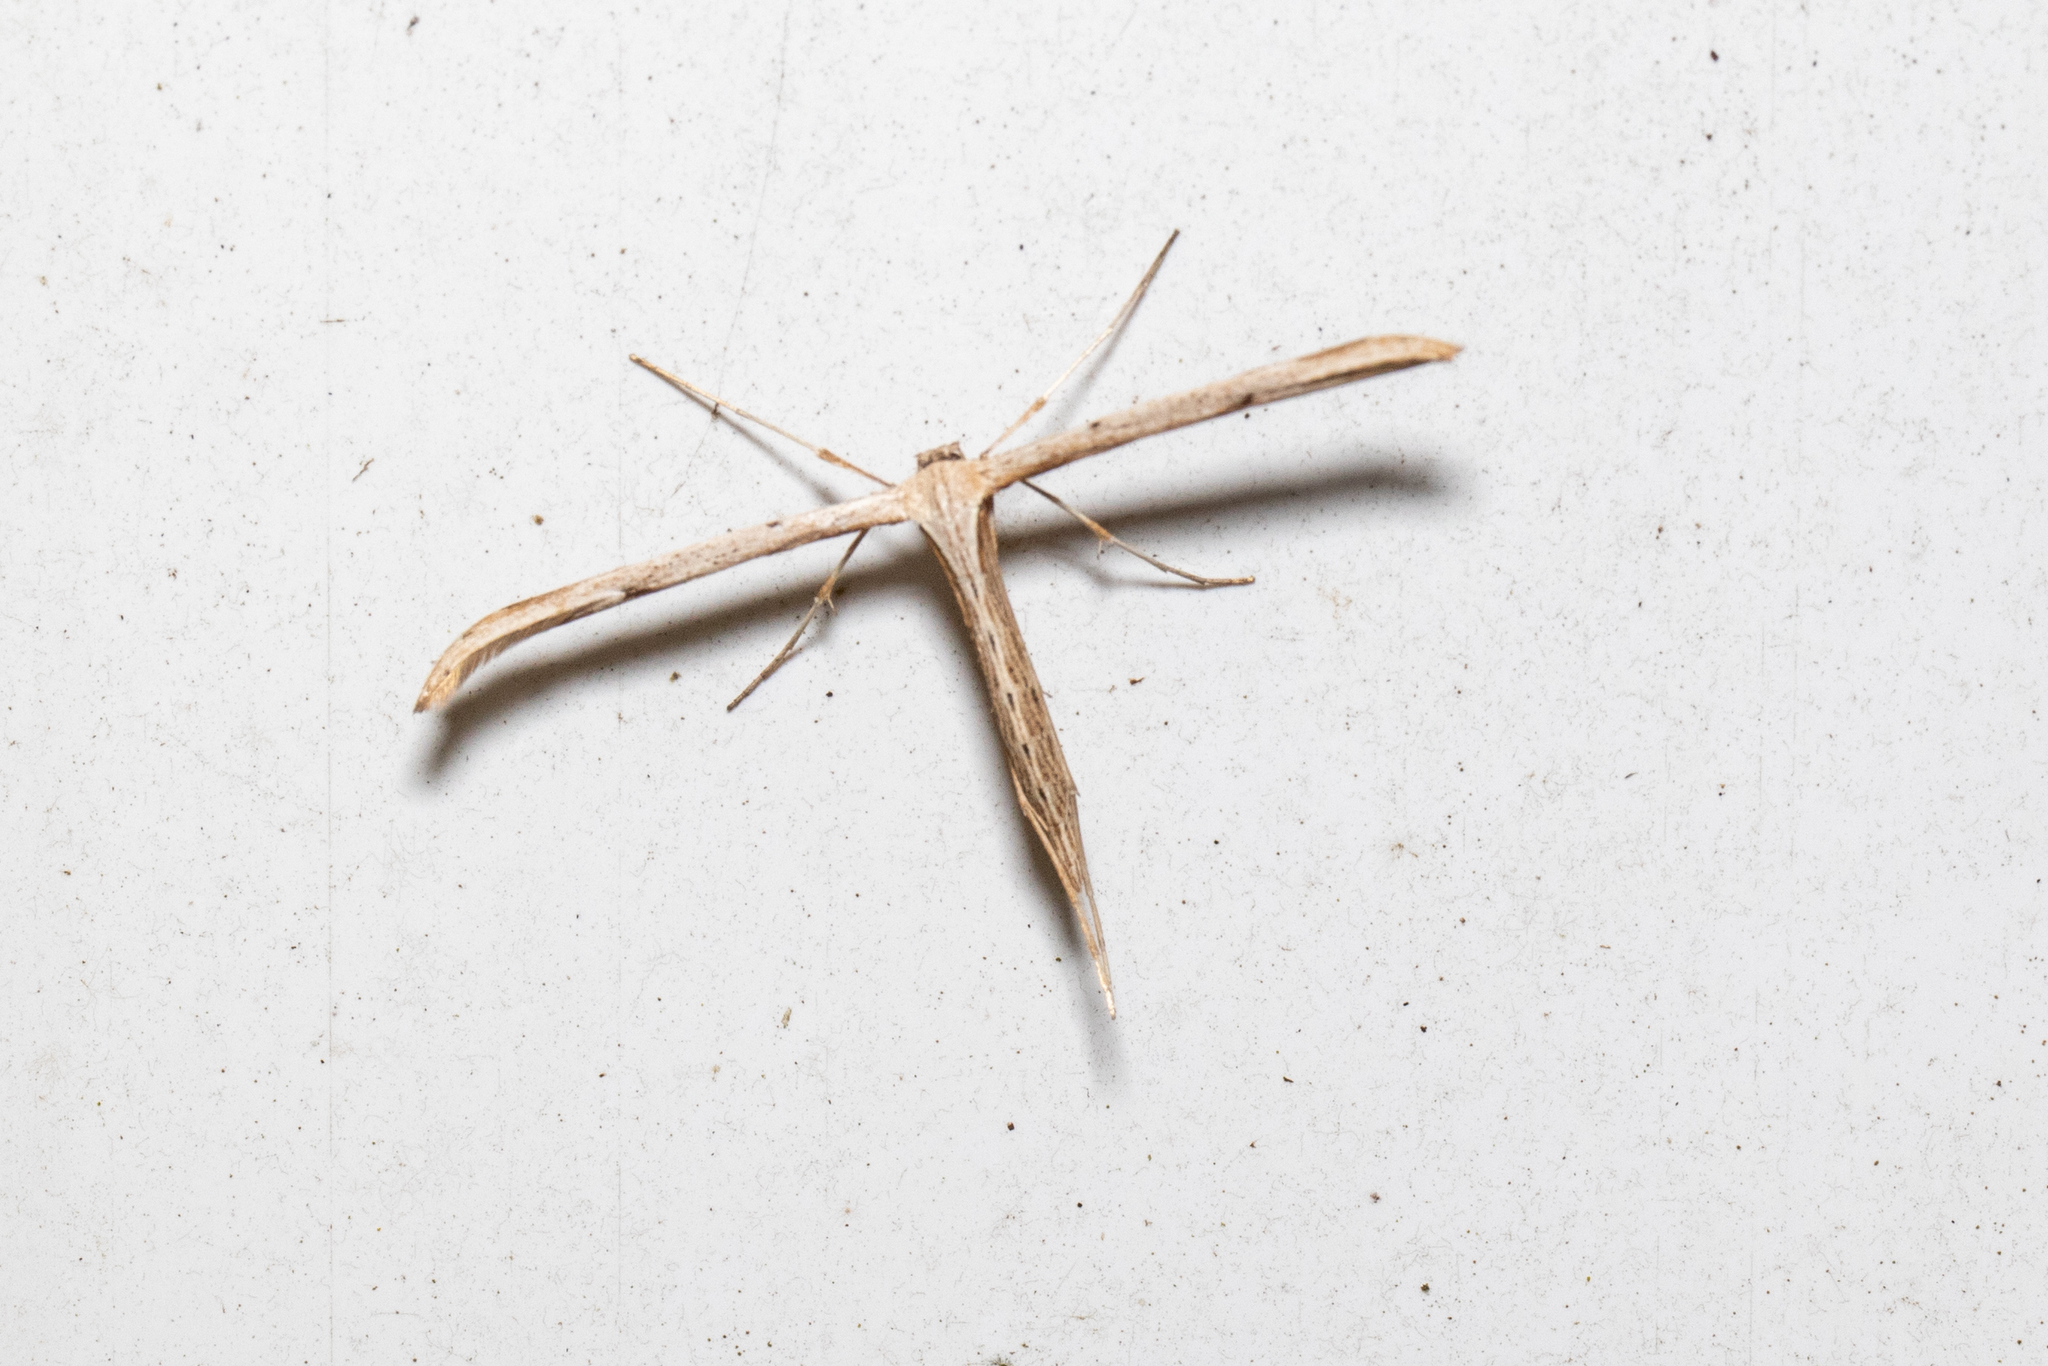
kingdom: Animalia
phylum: Arthropoda
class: Insecta
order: Lepidoptera
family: Pterophoridae
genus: Emmelina
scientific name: Emmelina monodactyla
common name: Common plume
